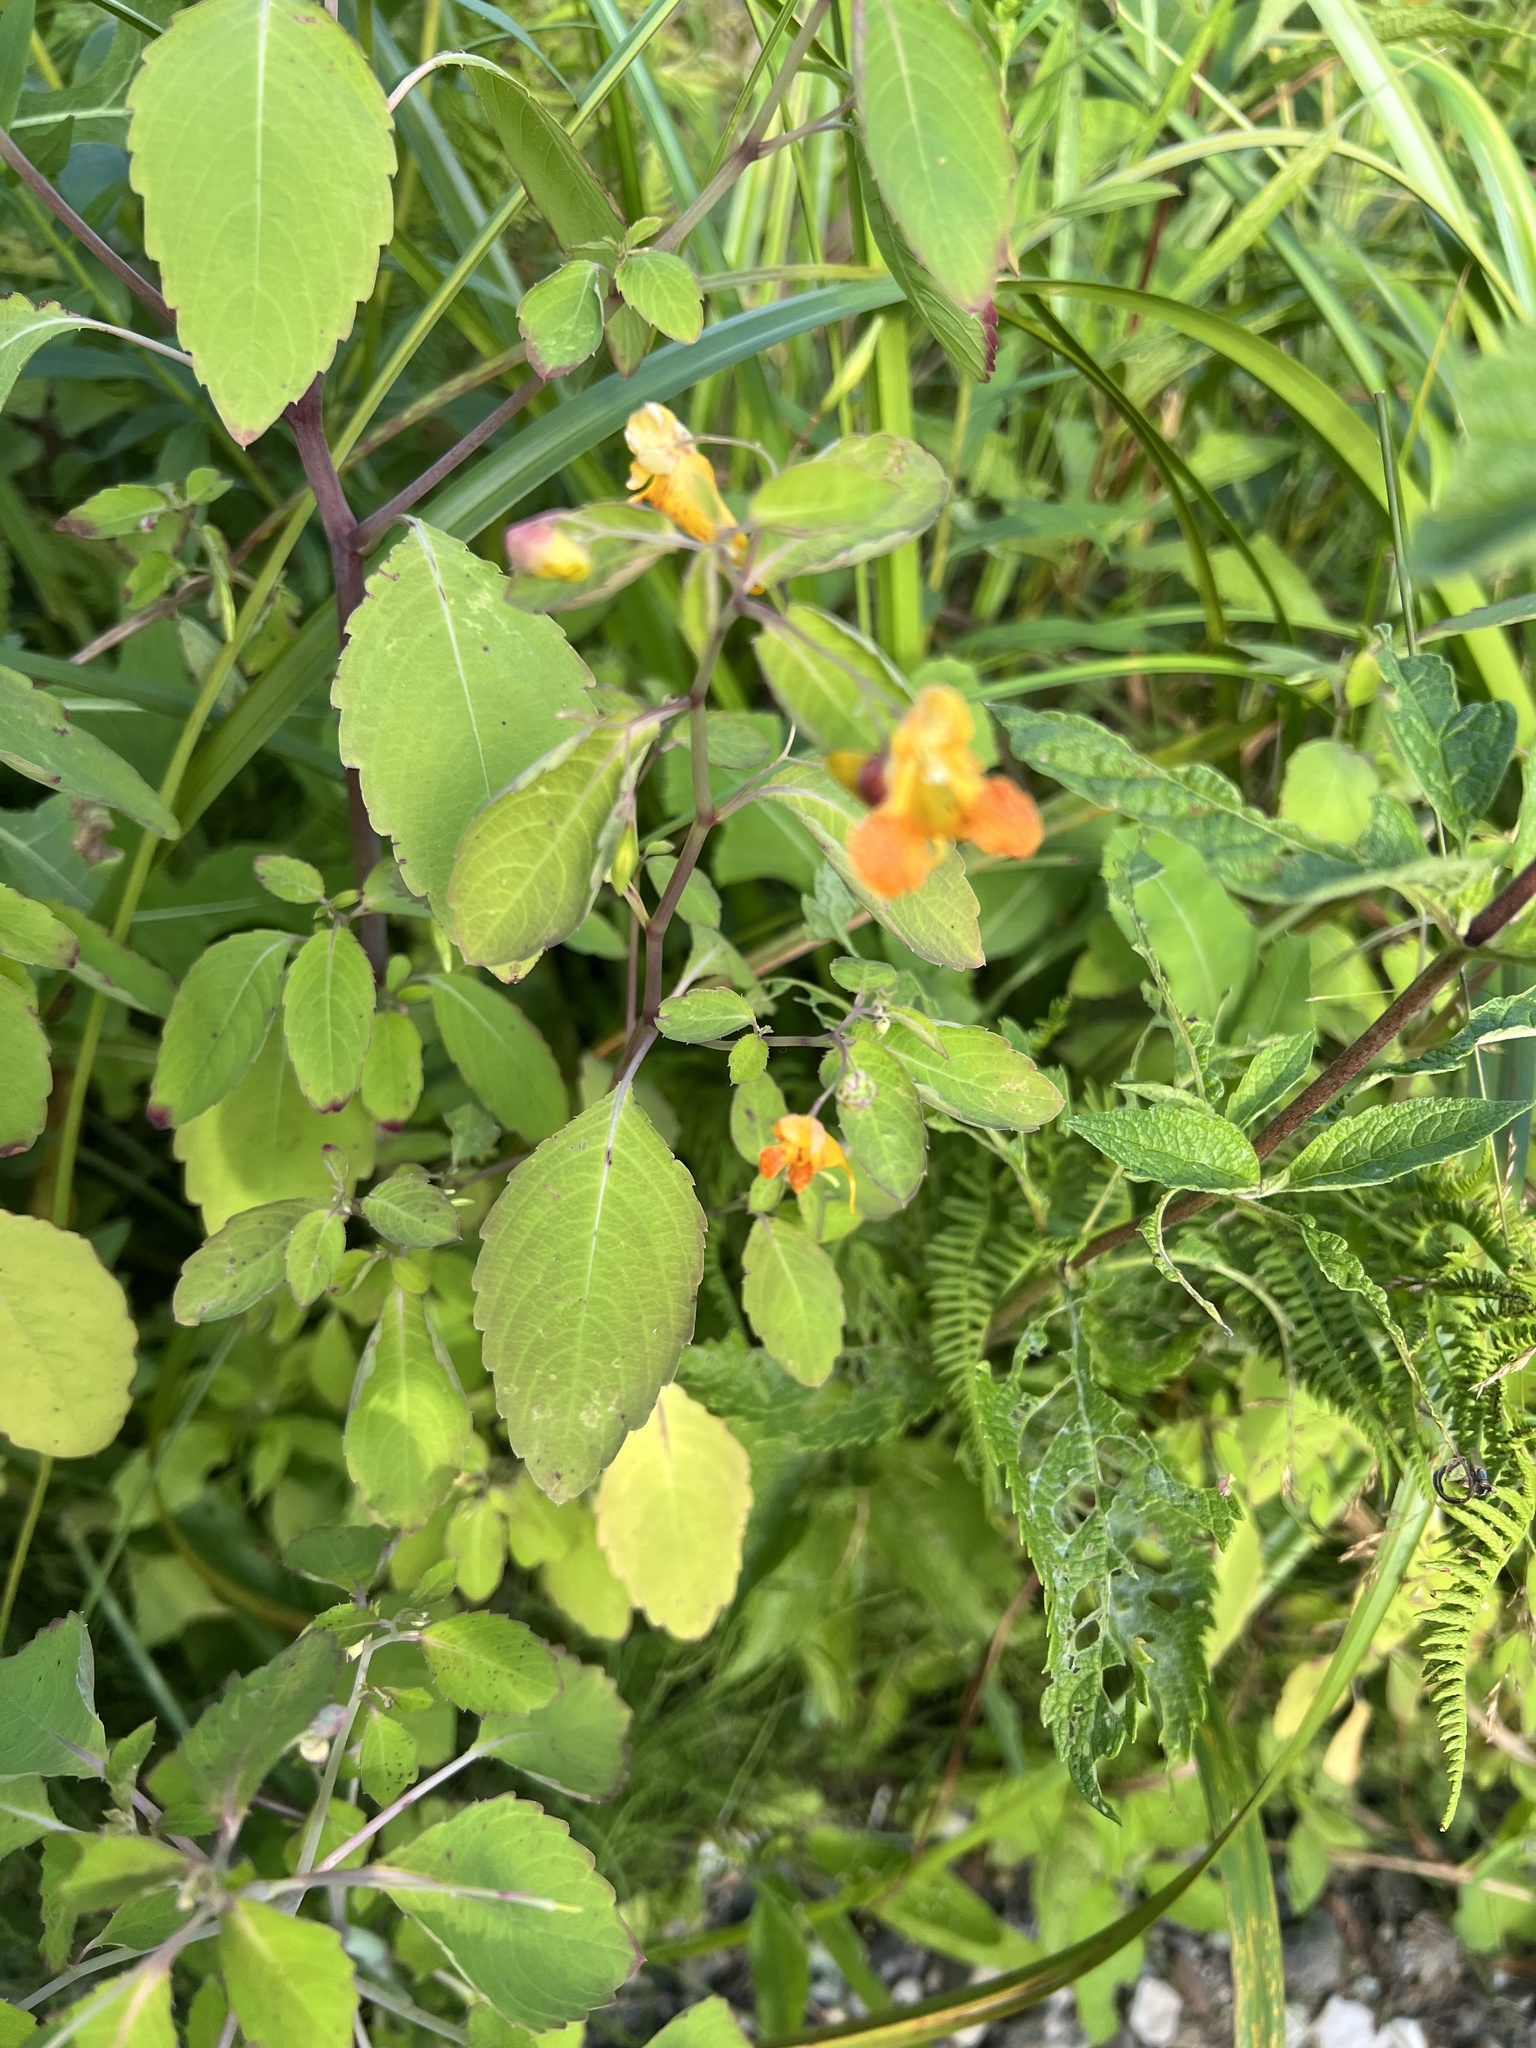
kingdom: Plantae
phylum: Tracheophyta
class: Magnoliopsida
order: Ericales
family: Balsaminaceae
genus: Impatiens
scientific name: Impatiens capensis
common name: Orange balsam
